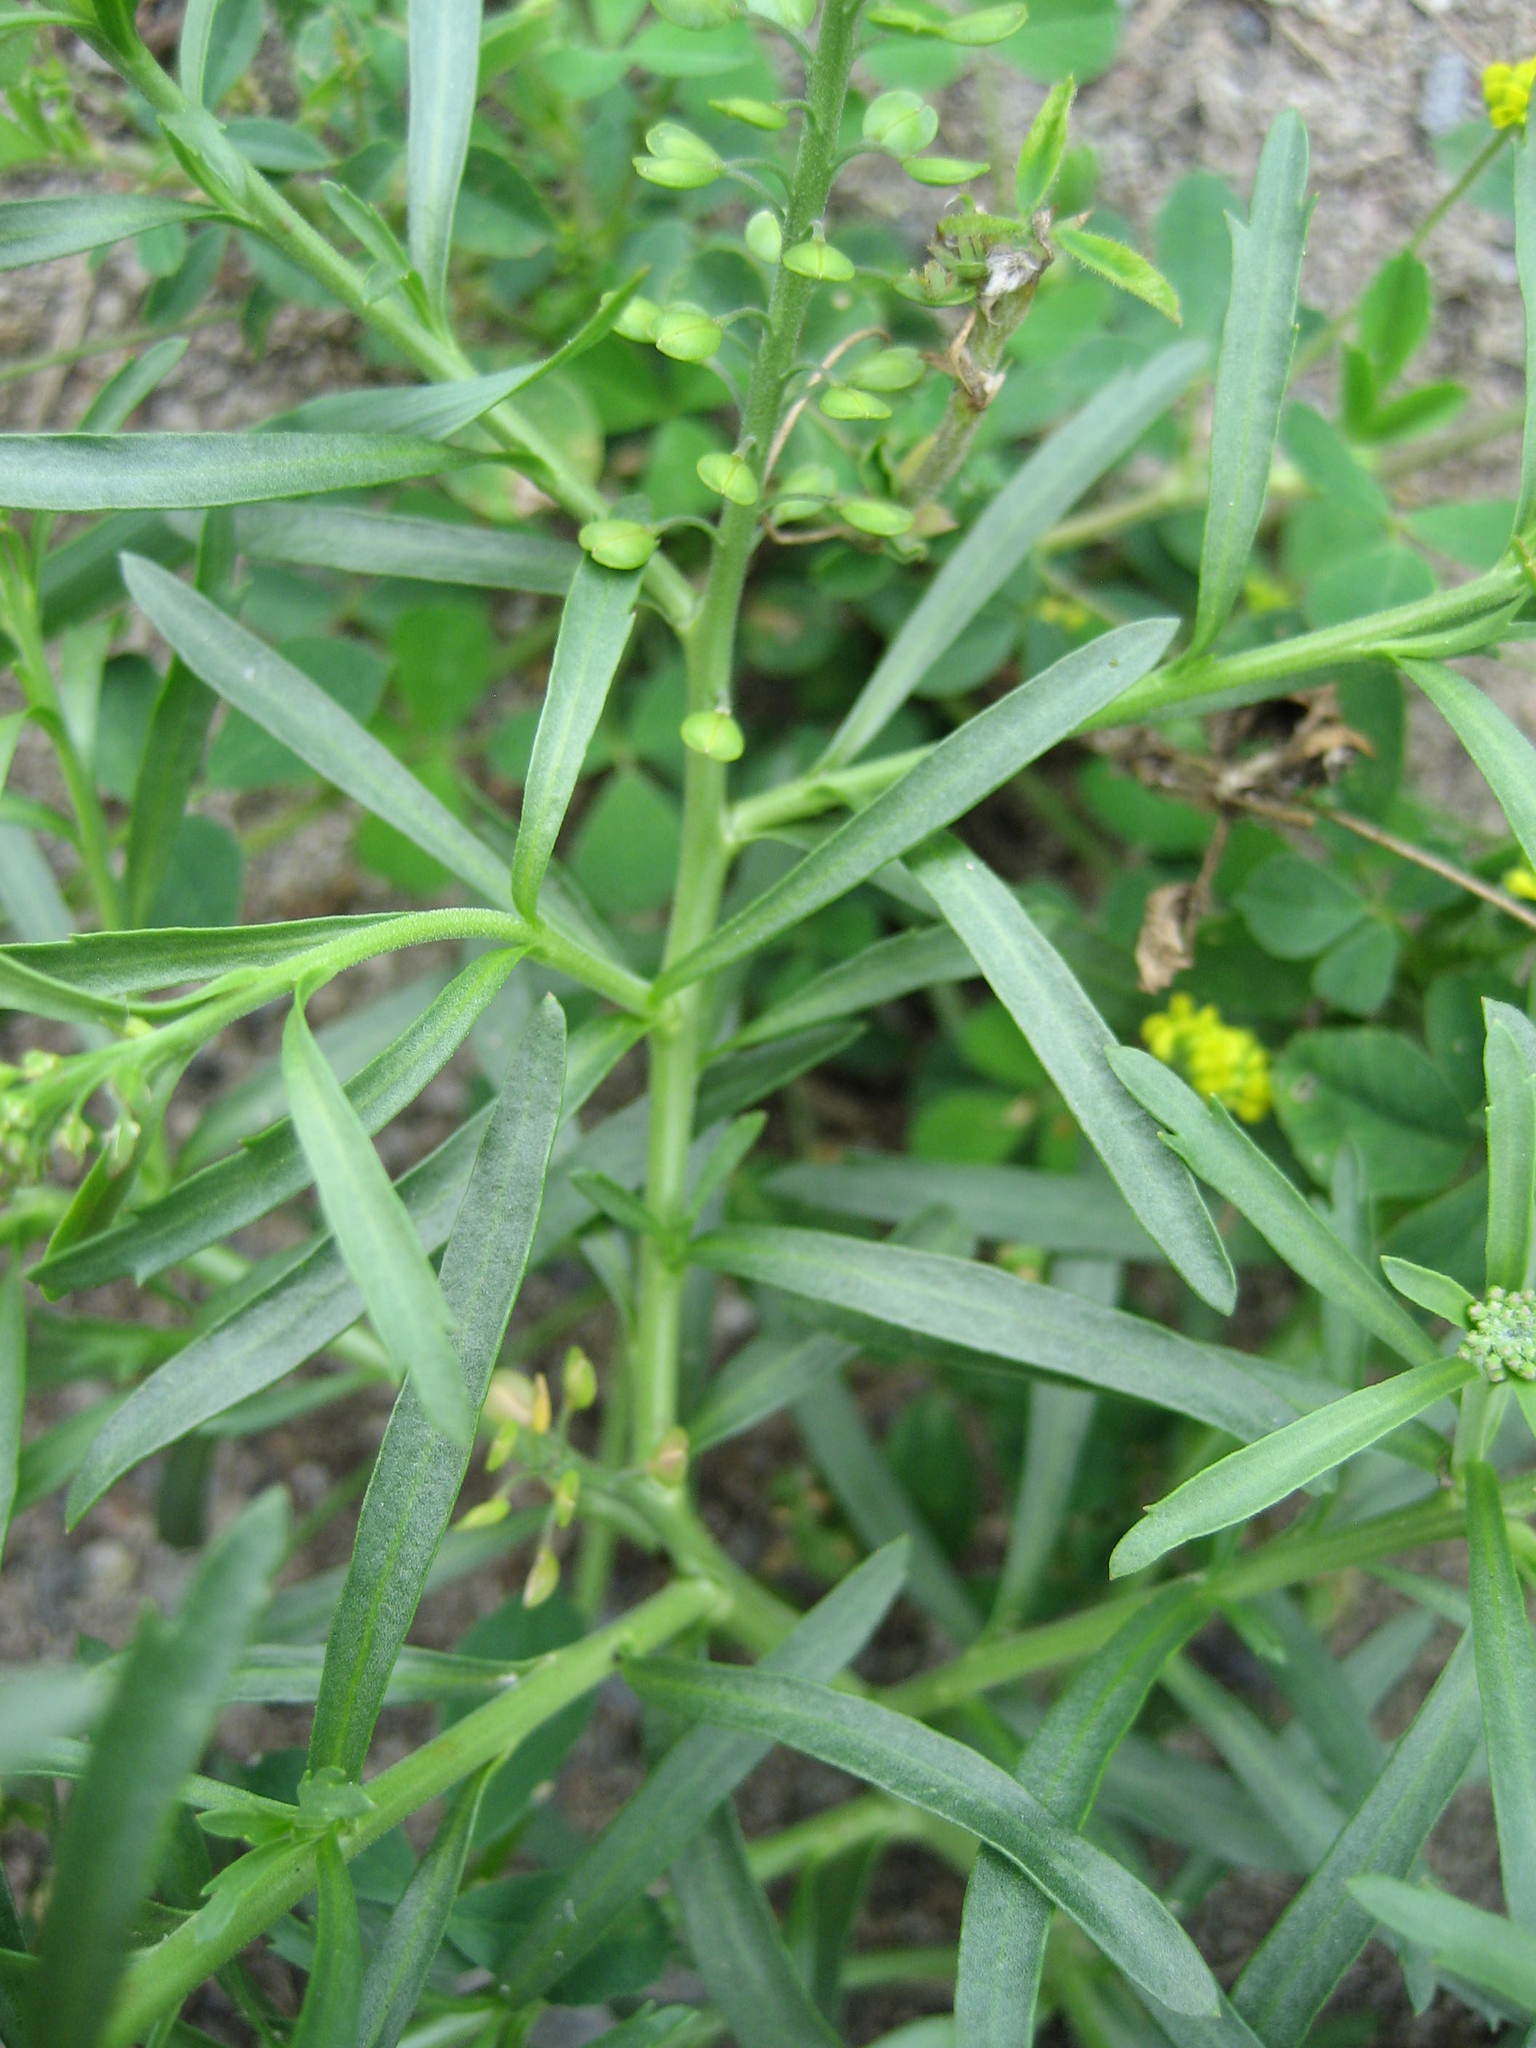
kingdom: Plantae
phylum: Tracheophyta
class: Magnoliopsida
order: Brassicales
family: Brassicaceae
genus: Lepidium
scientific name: Lepidium densiflorum
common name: Miner's pepperwort
